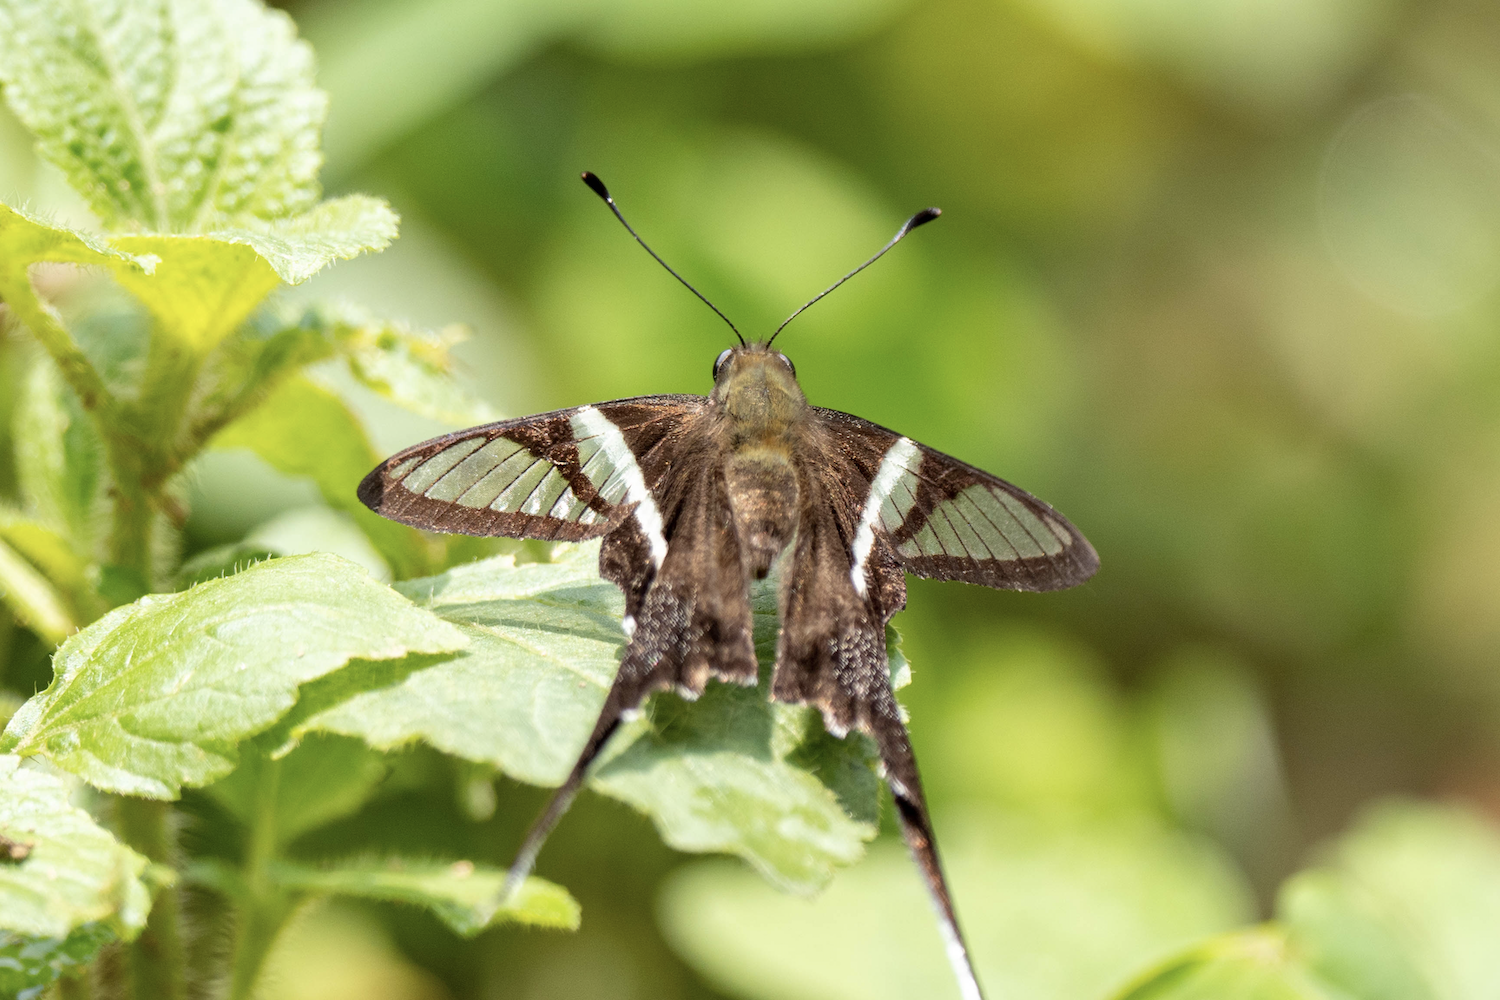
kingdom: Animalia
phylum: Arthropoda
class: Insecta
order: Lepidoptera
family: Papilionidae
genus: Lamproptera
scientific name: Lamproptera curius
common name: White dragontail
